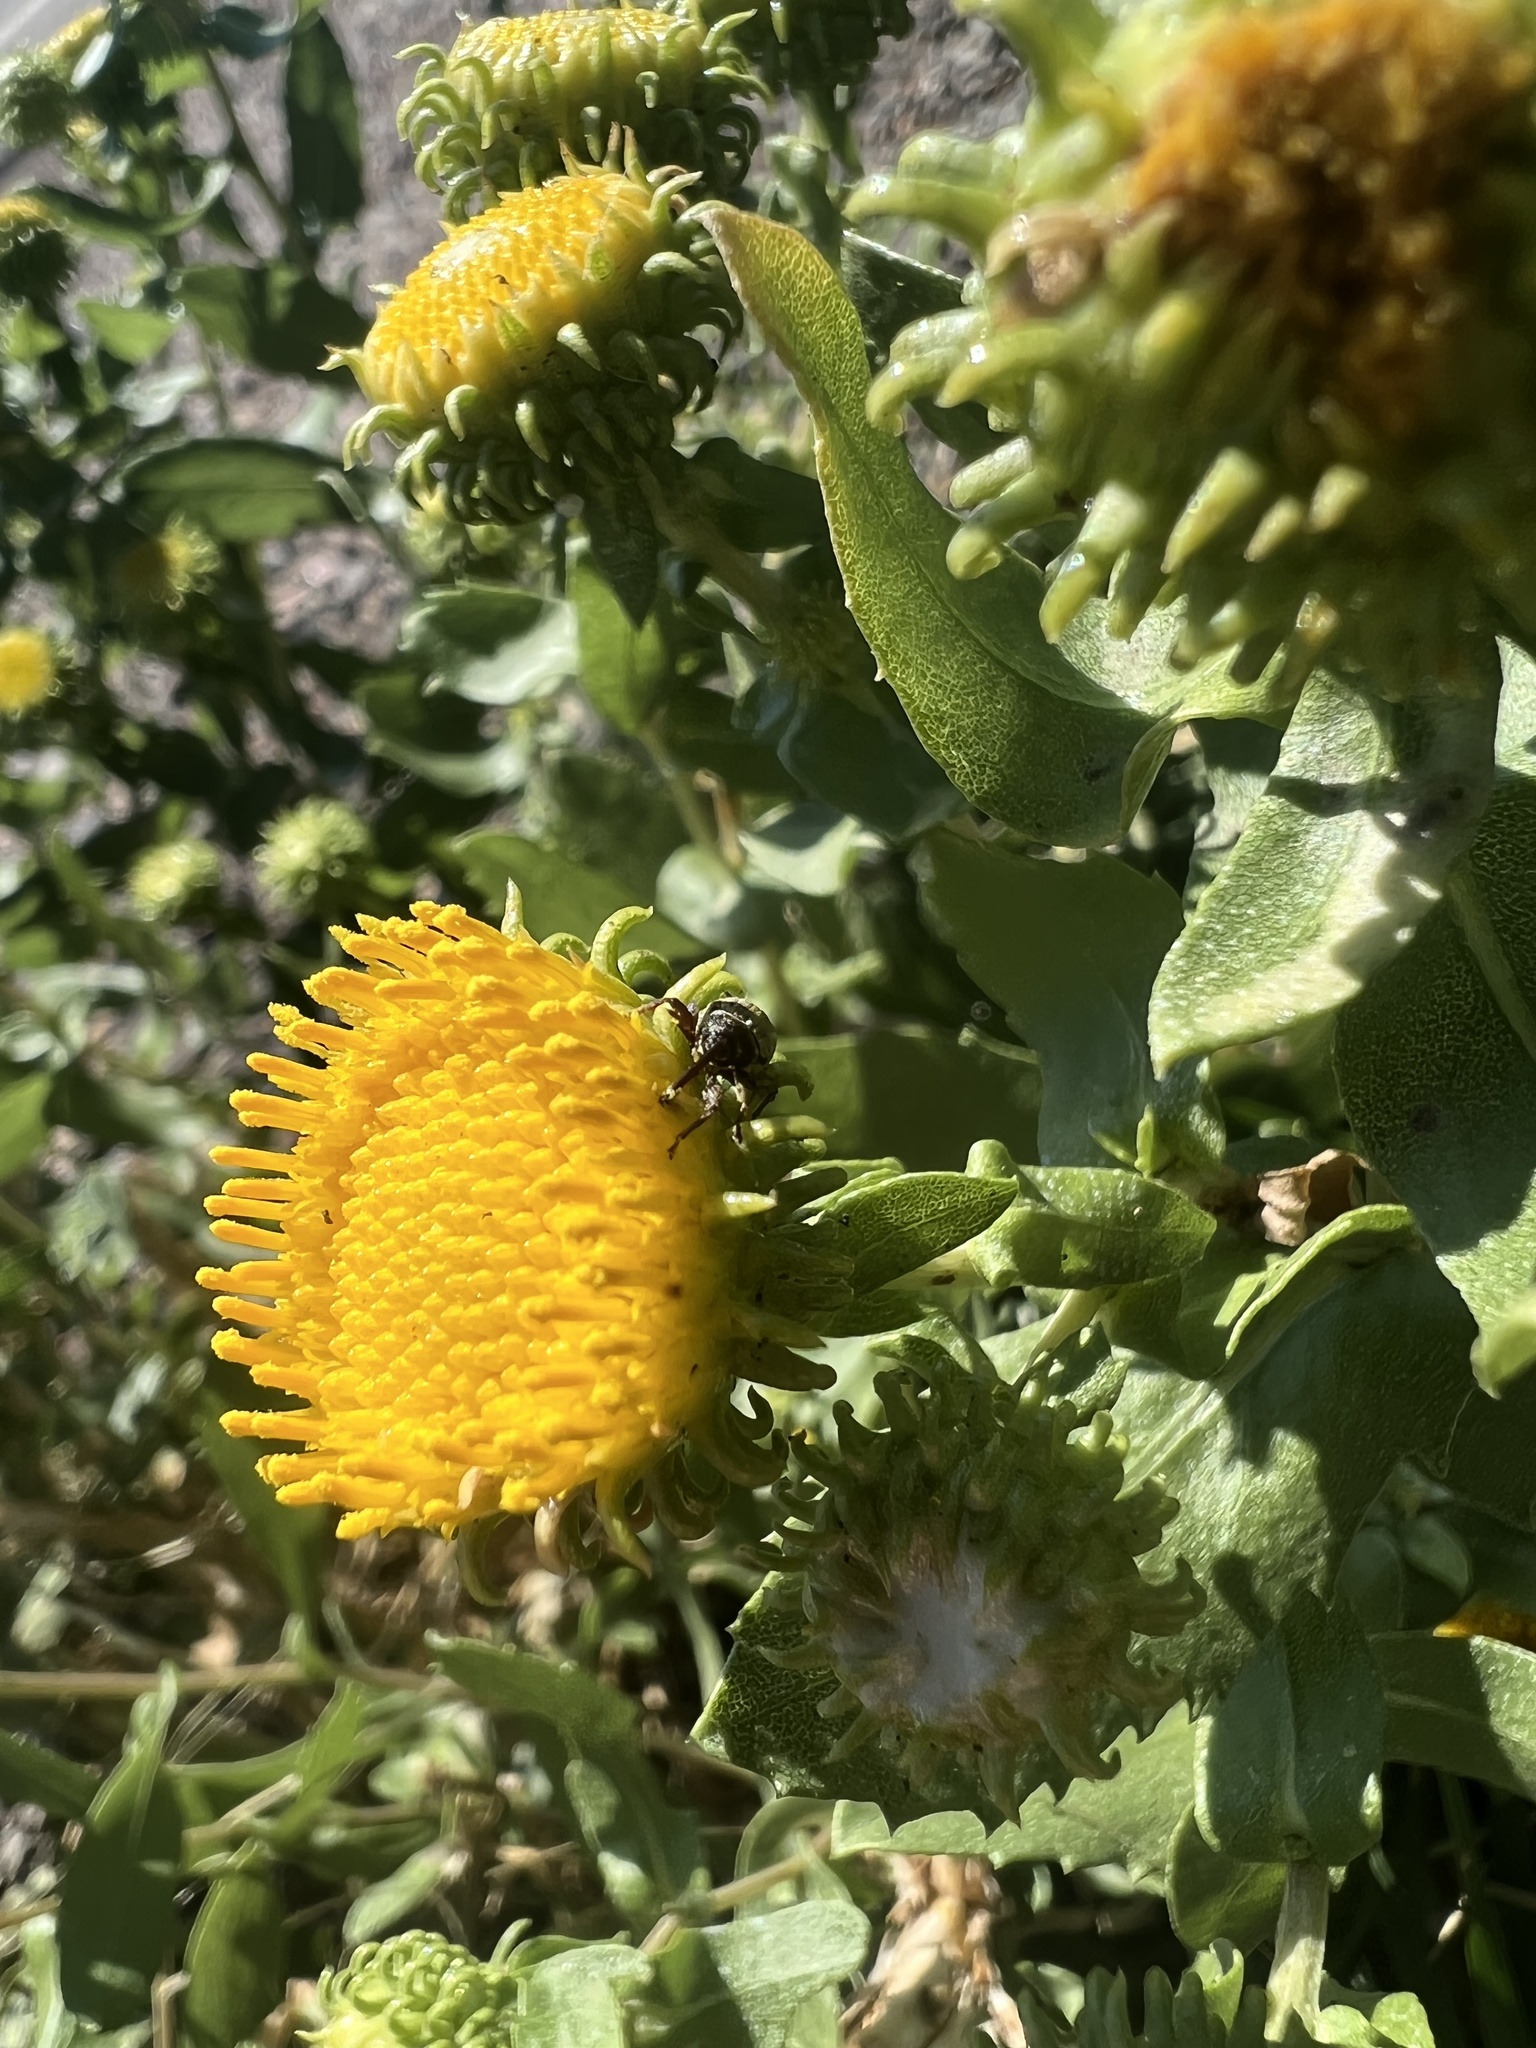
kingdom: Plantae
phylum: Tracheophyta
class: Magnoliopsida
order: Asterales
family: Asteraceae
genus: Grindelia
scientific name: Grindelia hirsutula
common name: Hairy gumweed
